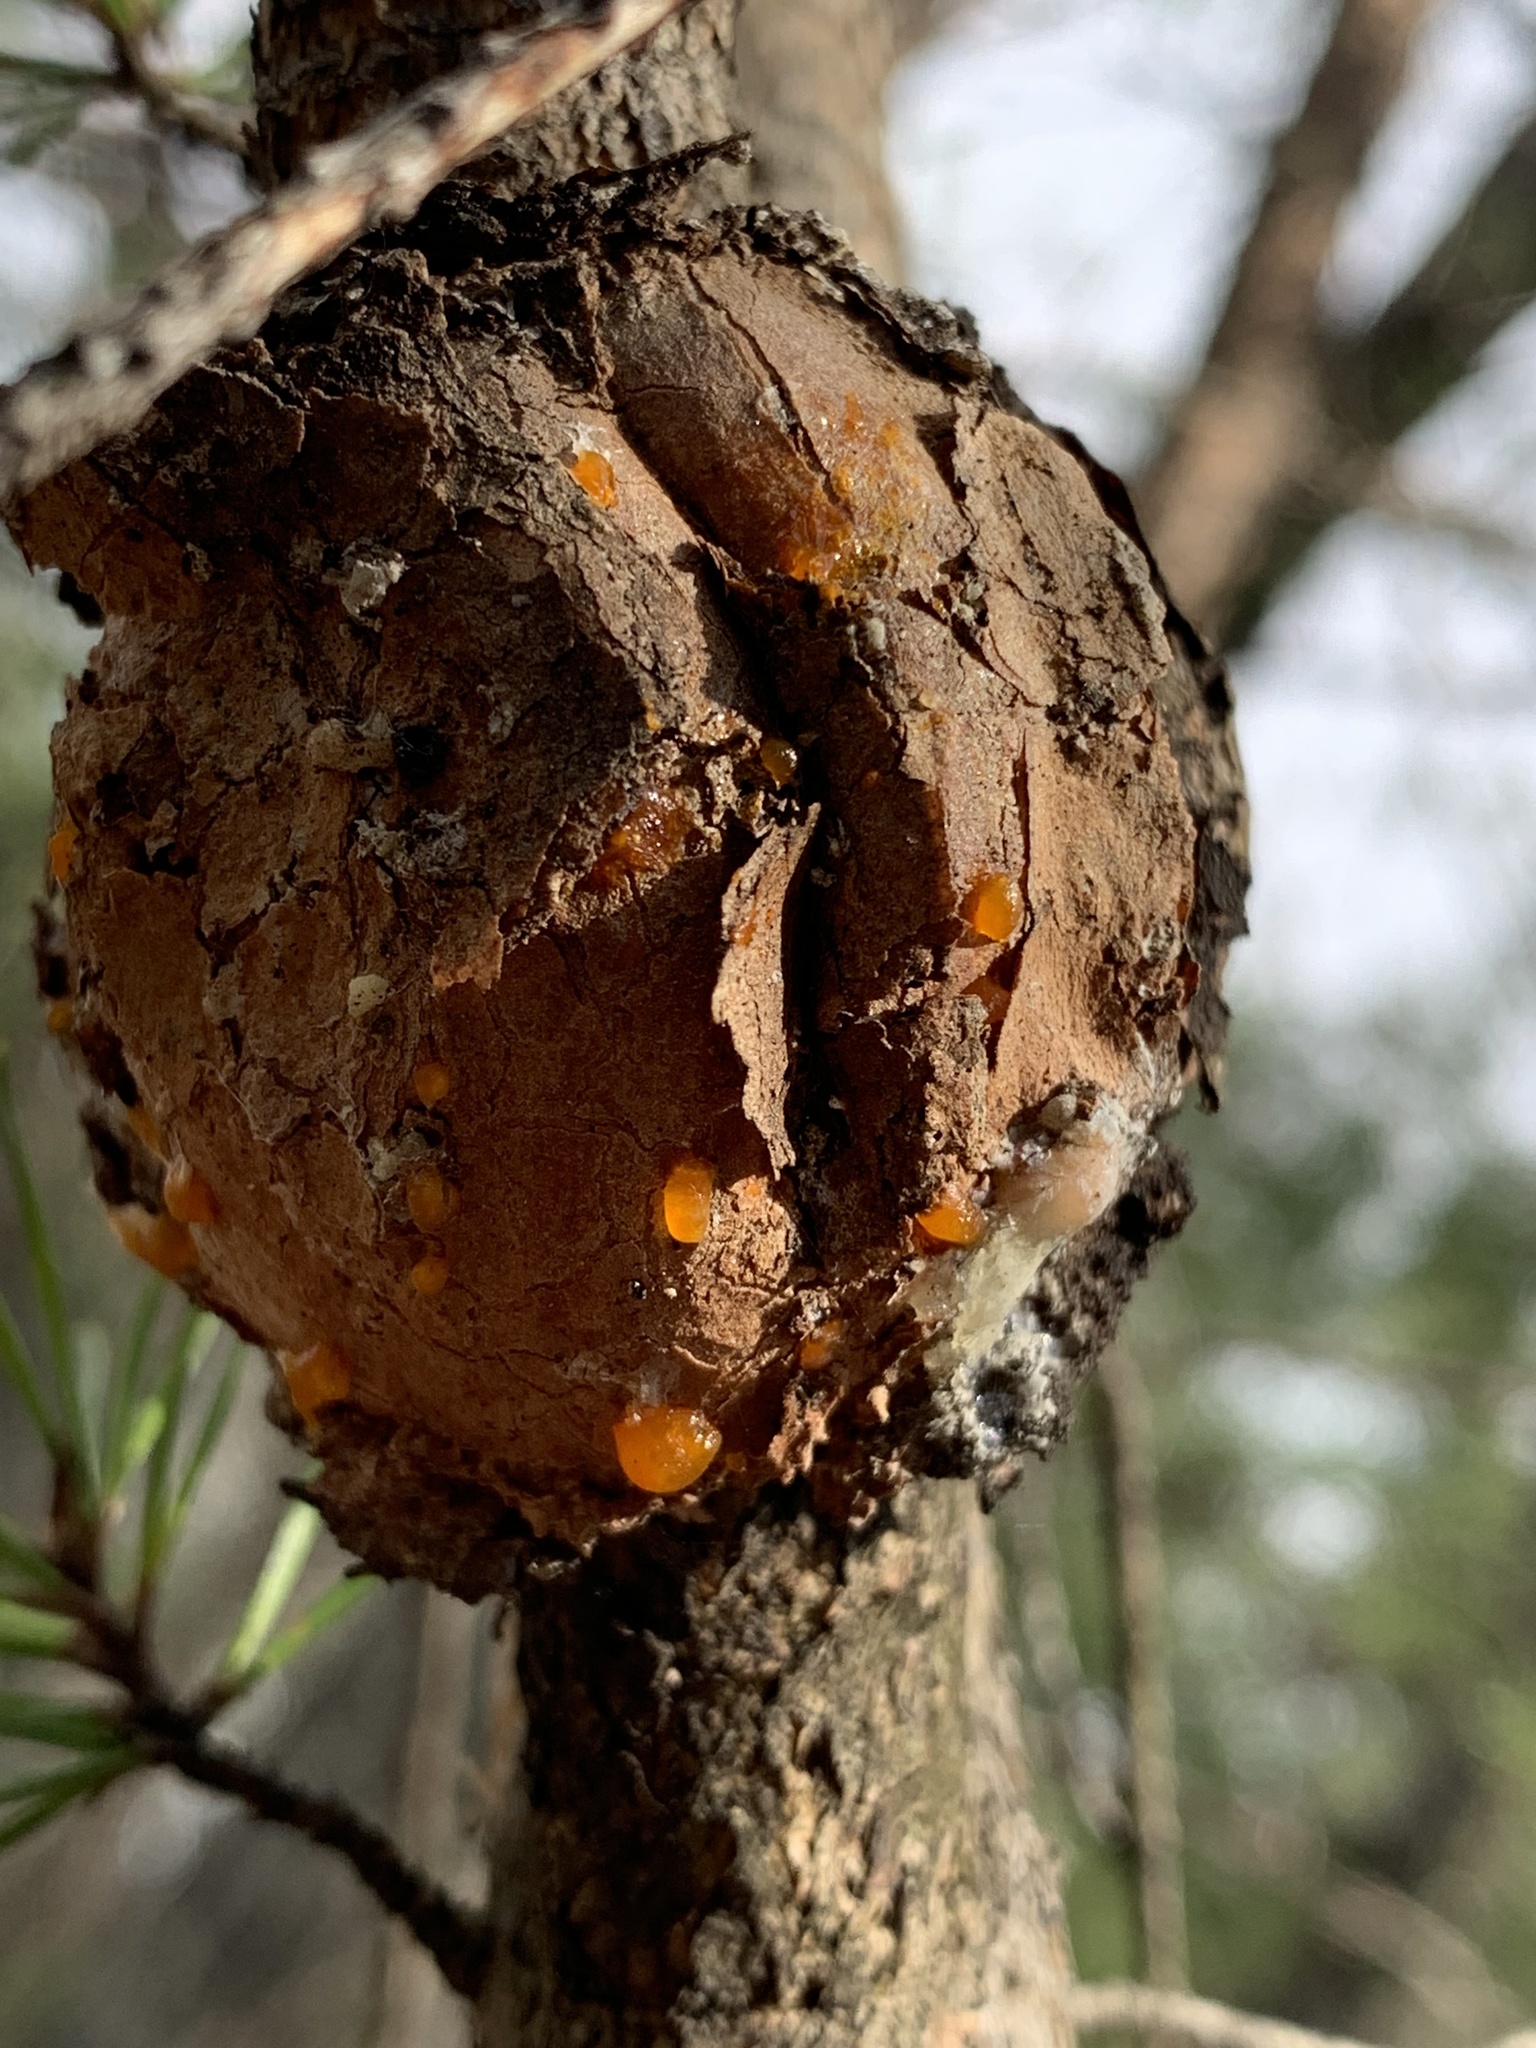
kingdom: Fungi
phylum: Basidiomycota
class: Pucciniomycetes
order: Pucciniales
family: Cronartiaceae
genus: Cronartium
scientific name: Cronartium quercuum
